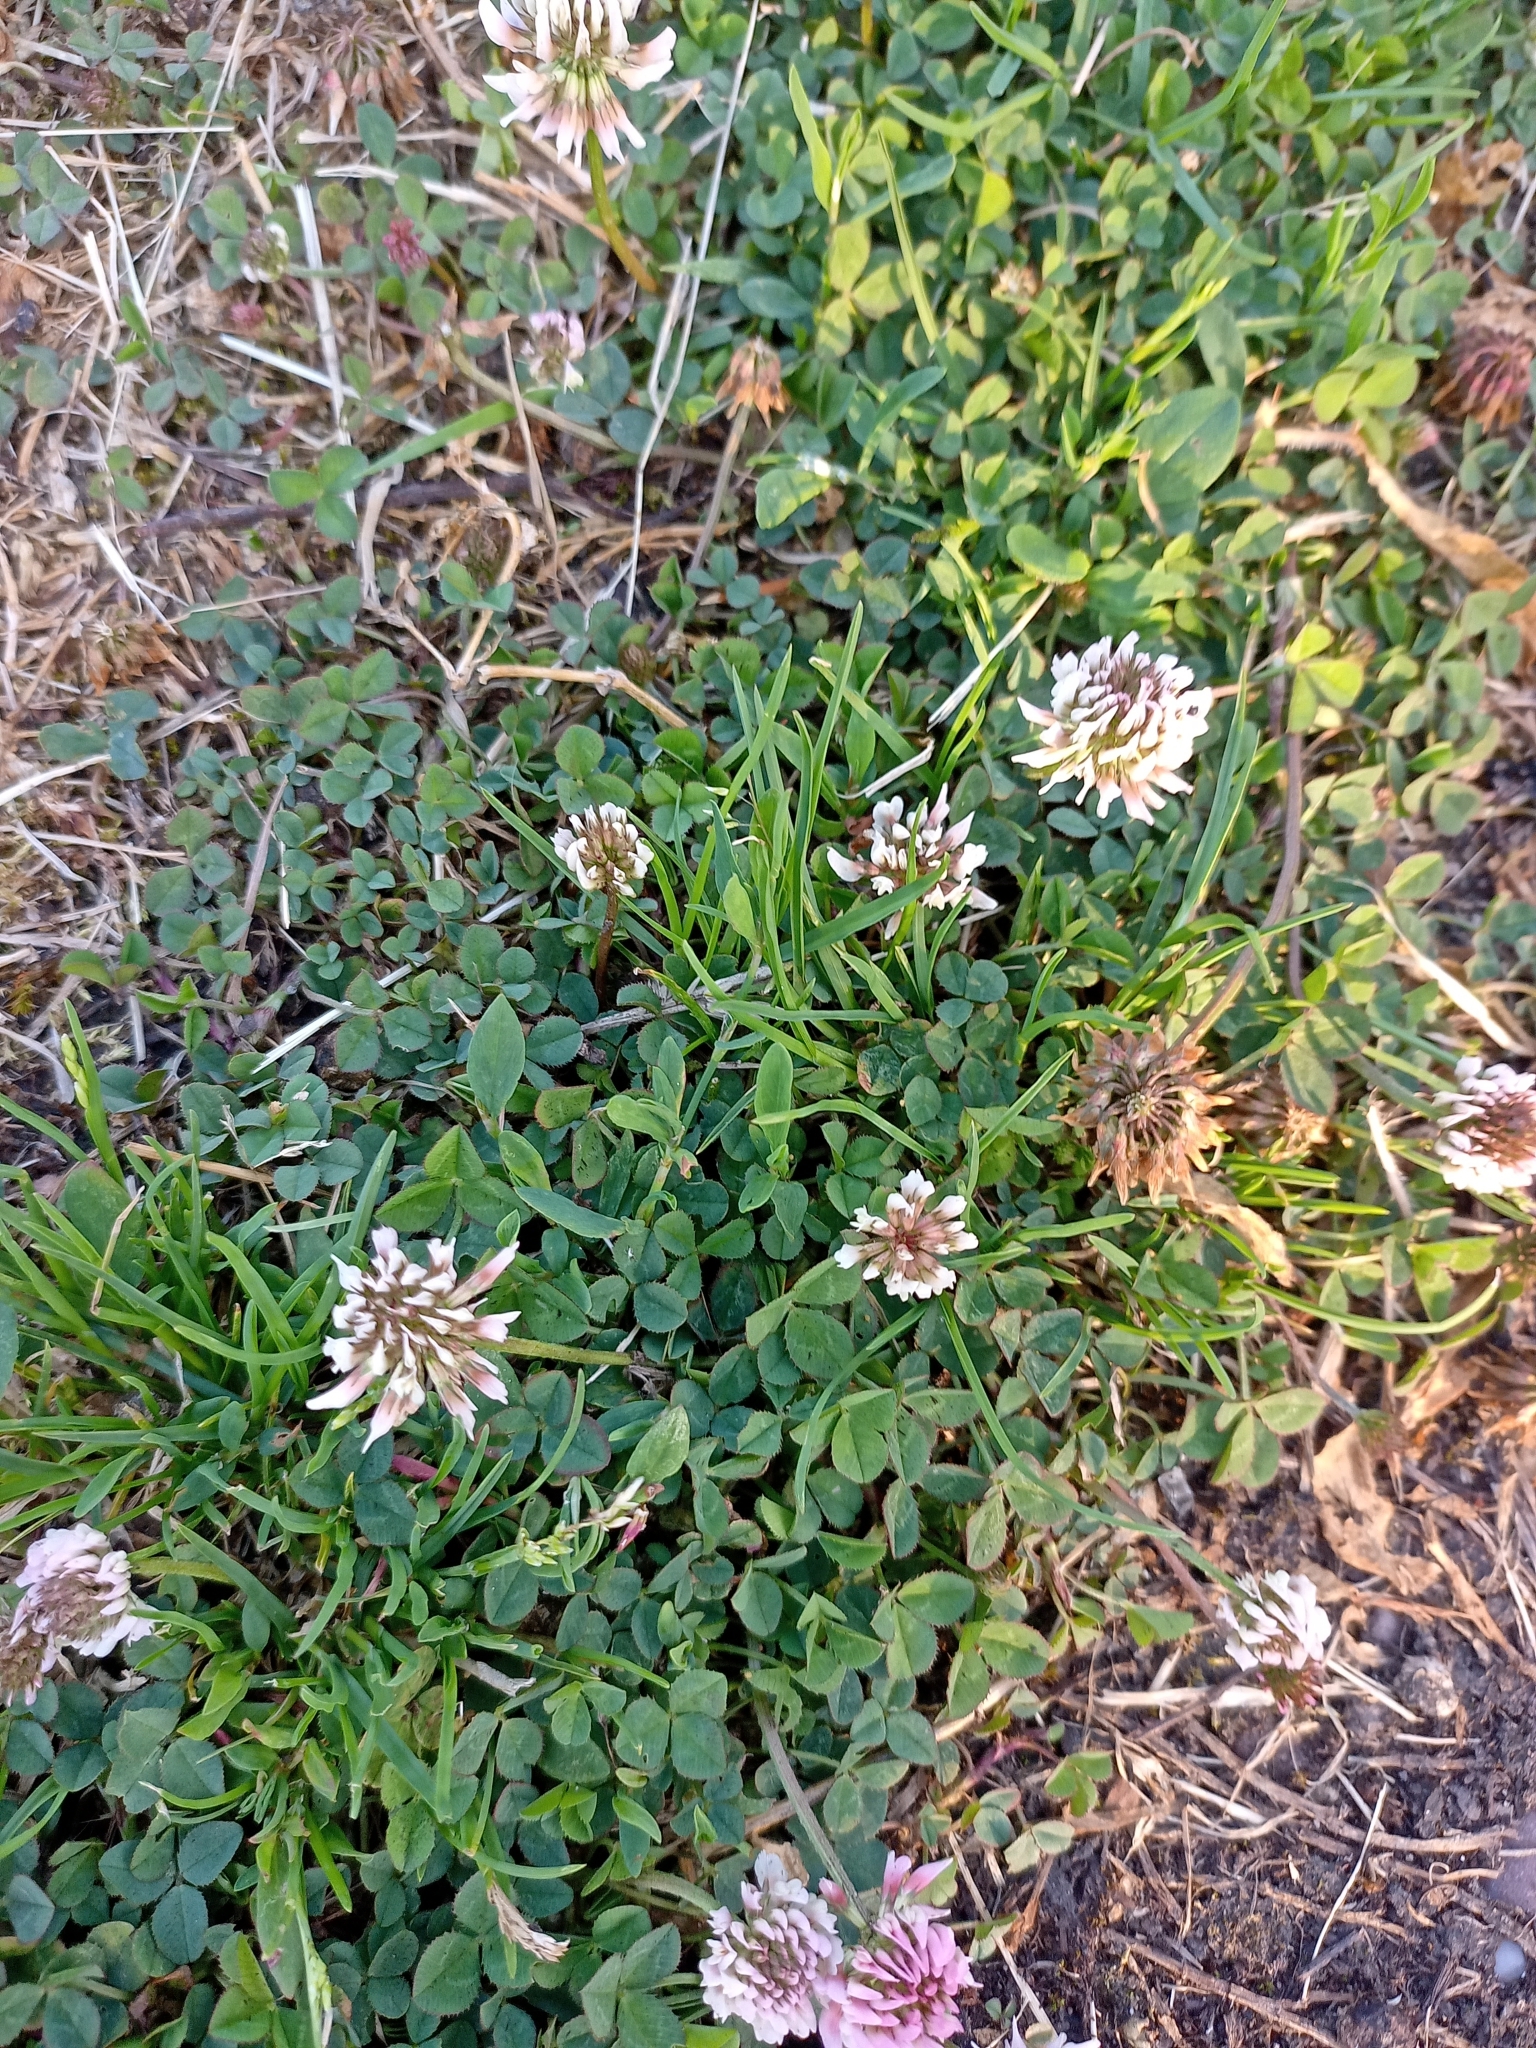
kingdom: Plantae
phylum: Tracheophyta
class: Magnoliopsida
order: Fabales
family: Fabaceae
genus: Trifolium
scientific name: Trifolium repens
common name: White clover
